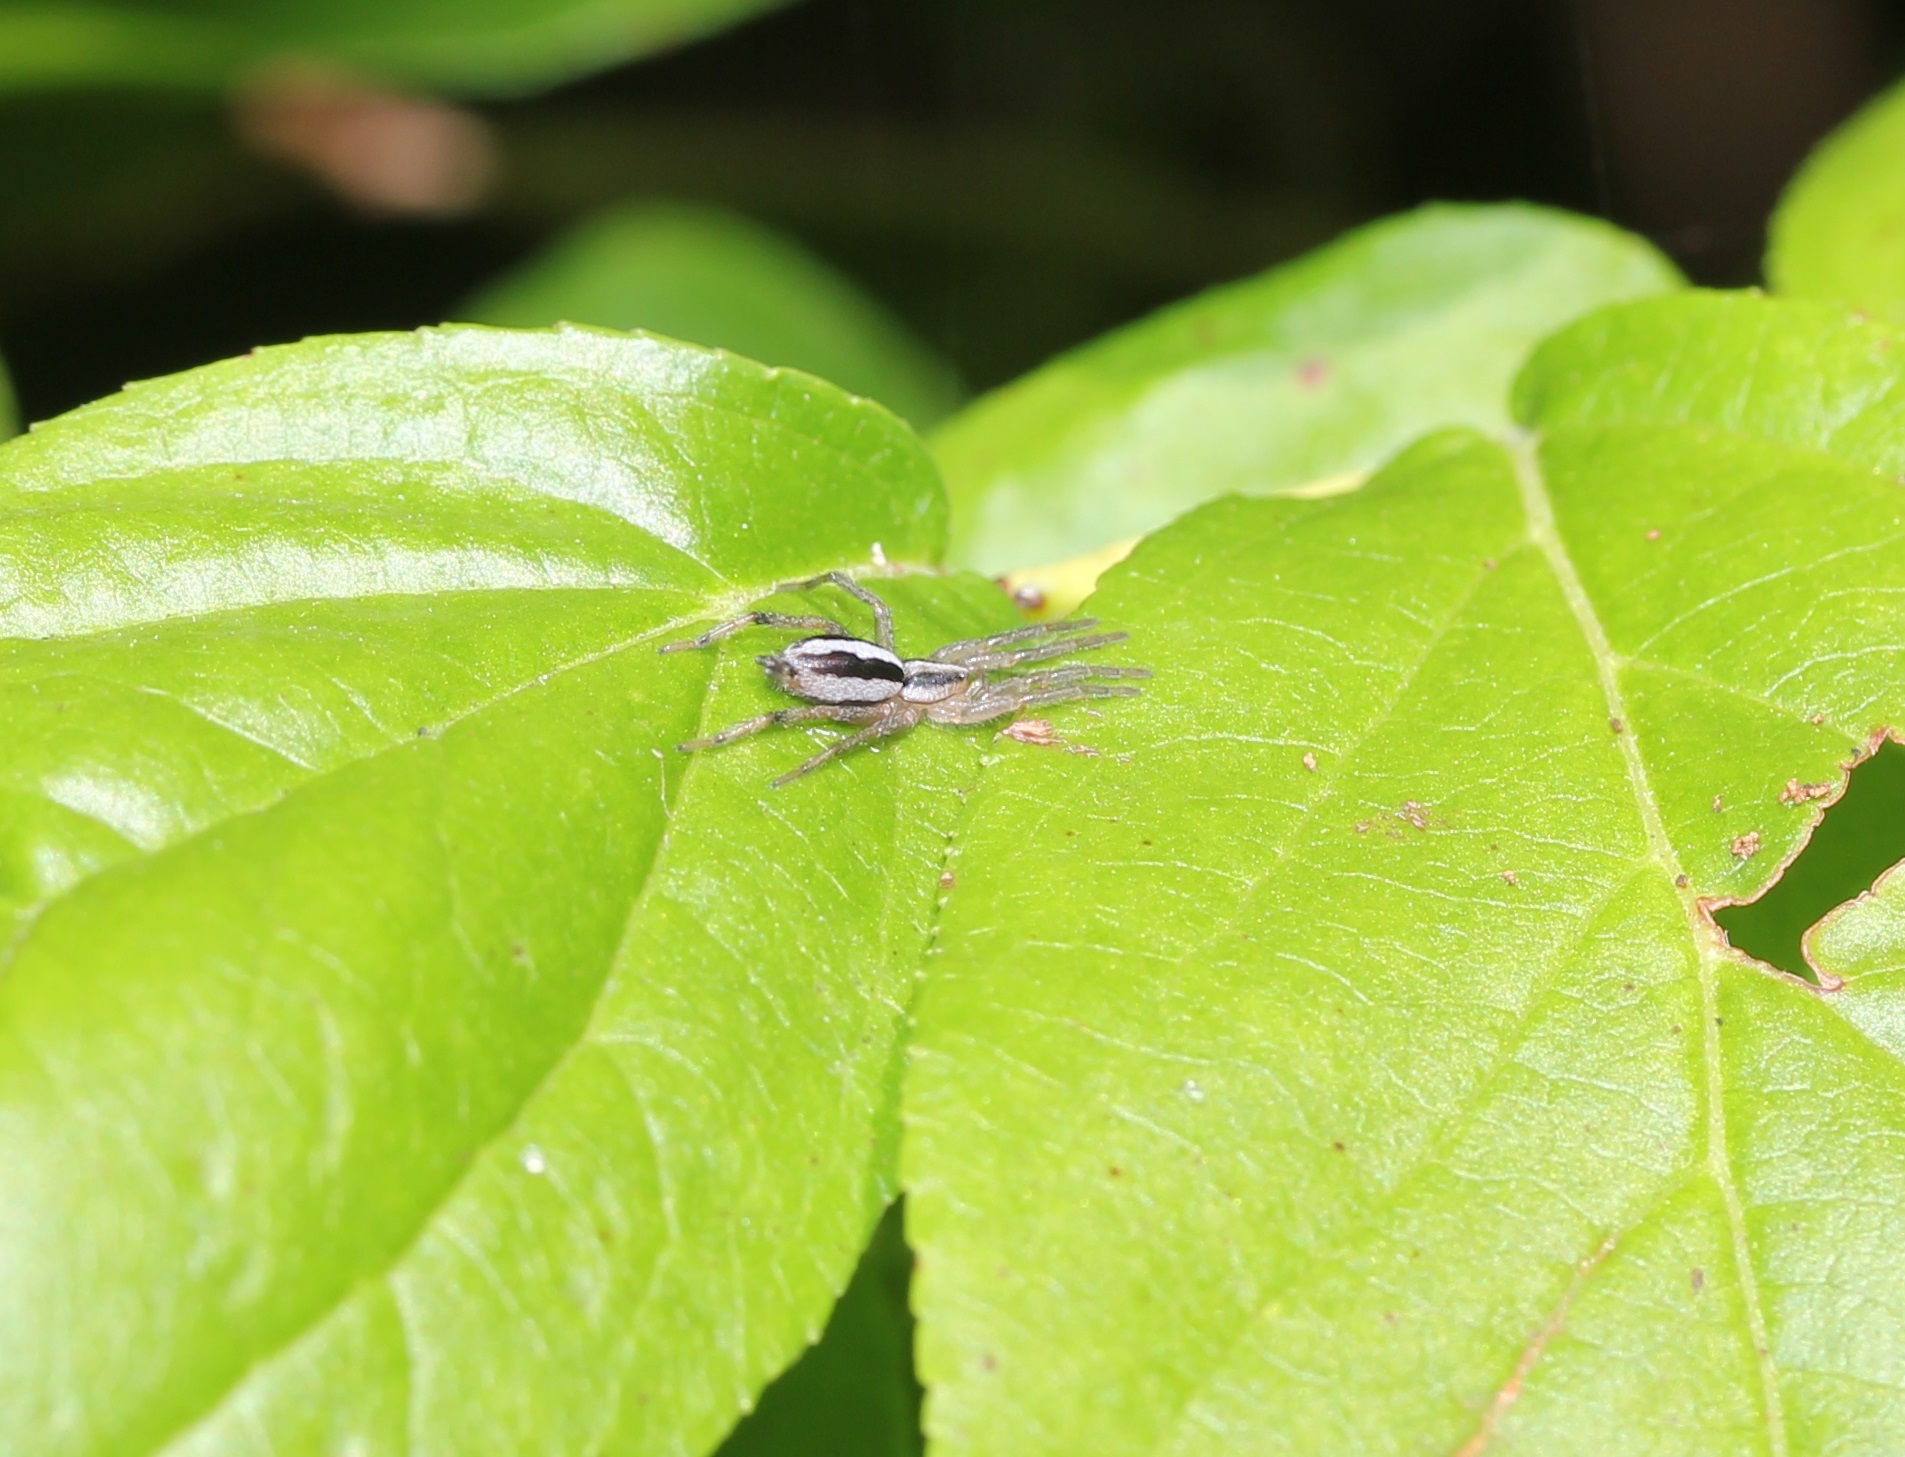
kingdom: Animalia
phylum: Arthropoda
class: Arachnida
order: Araneae
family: Gnaphosidae
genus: Cesonia
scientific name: Cesonia bilineata
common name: Two-lined stealthy ground spider
